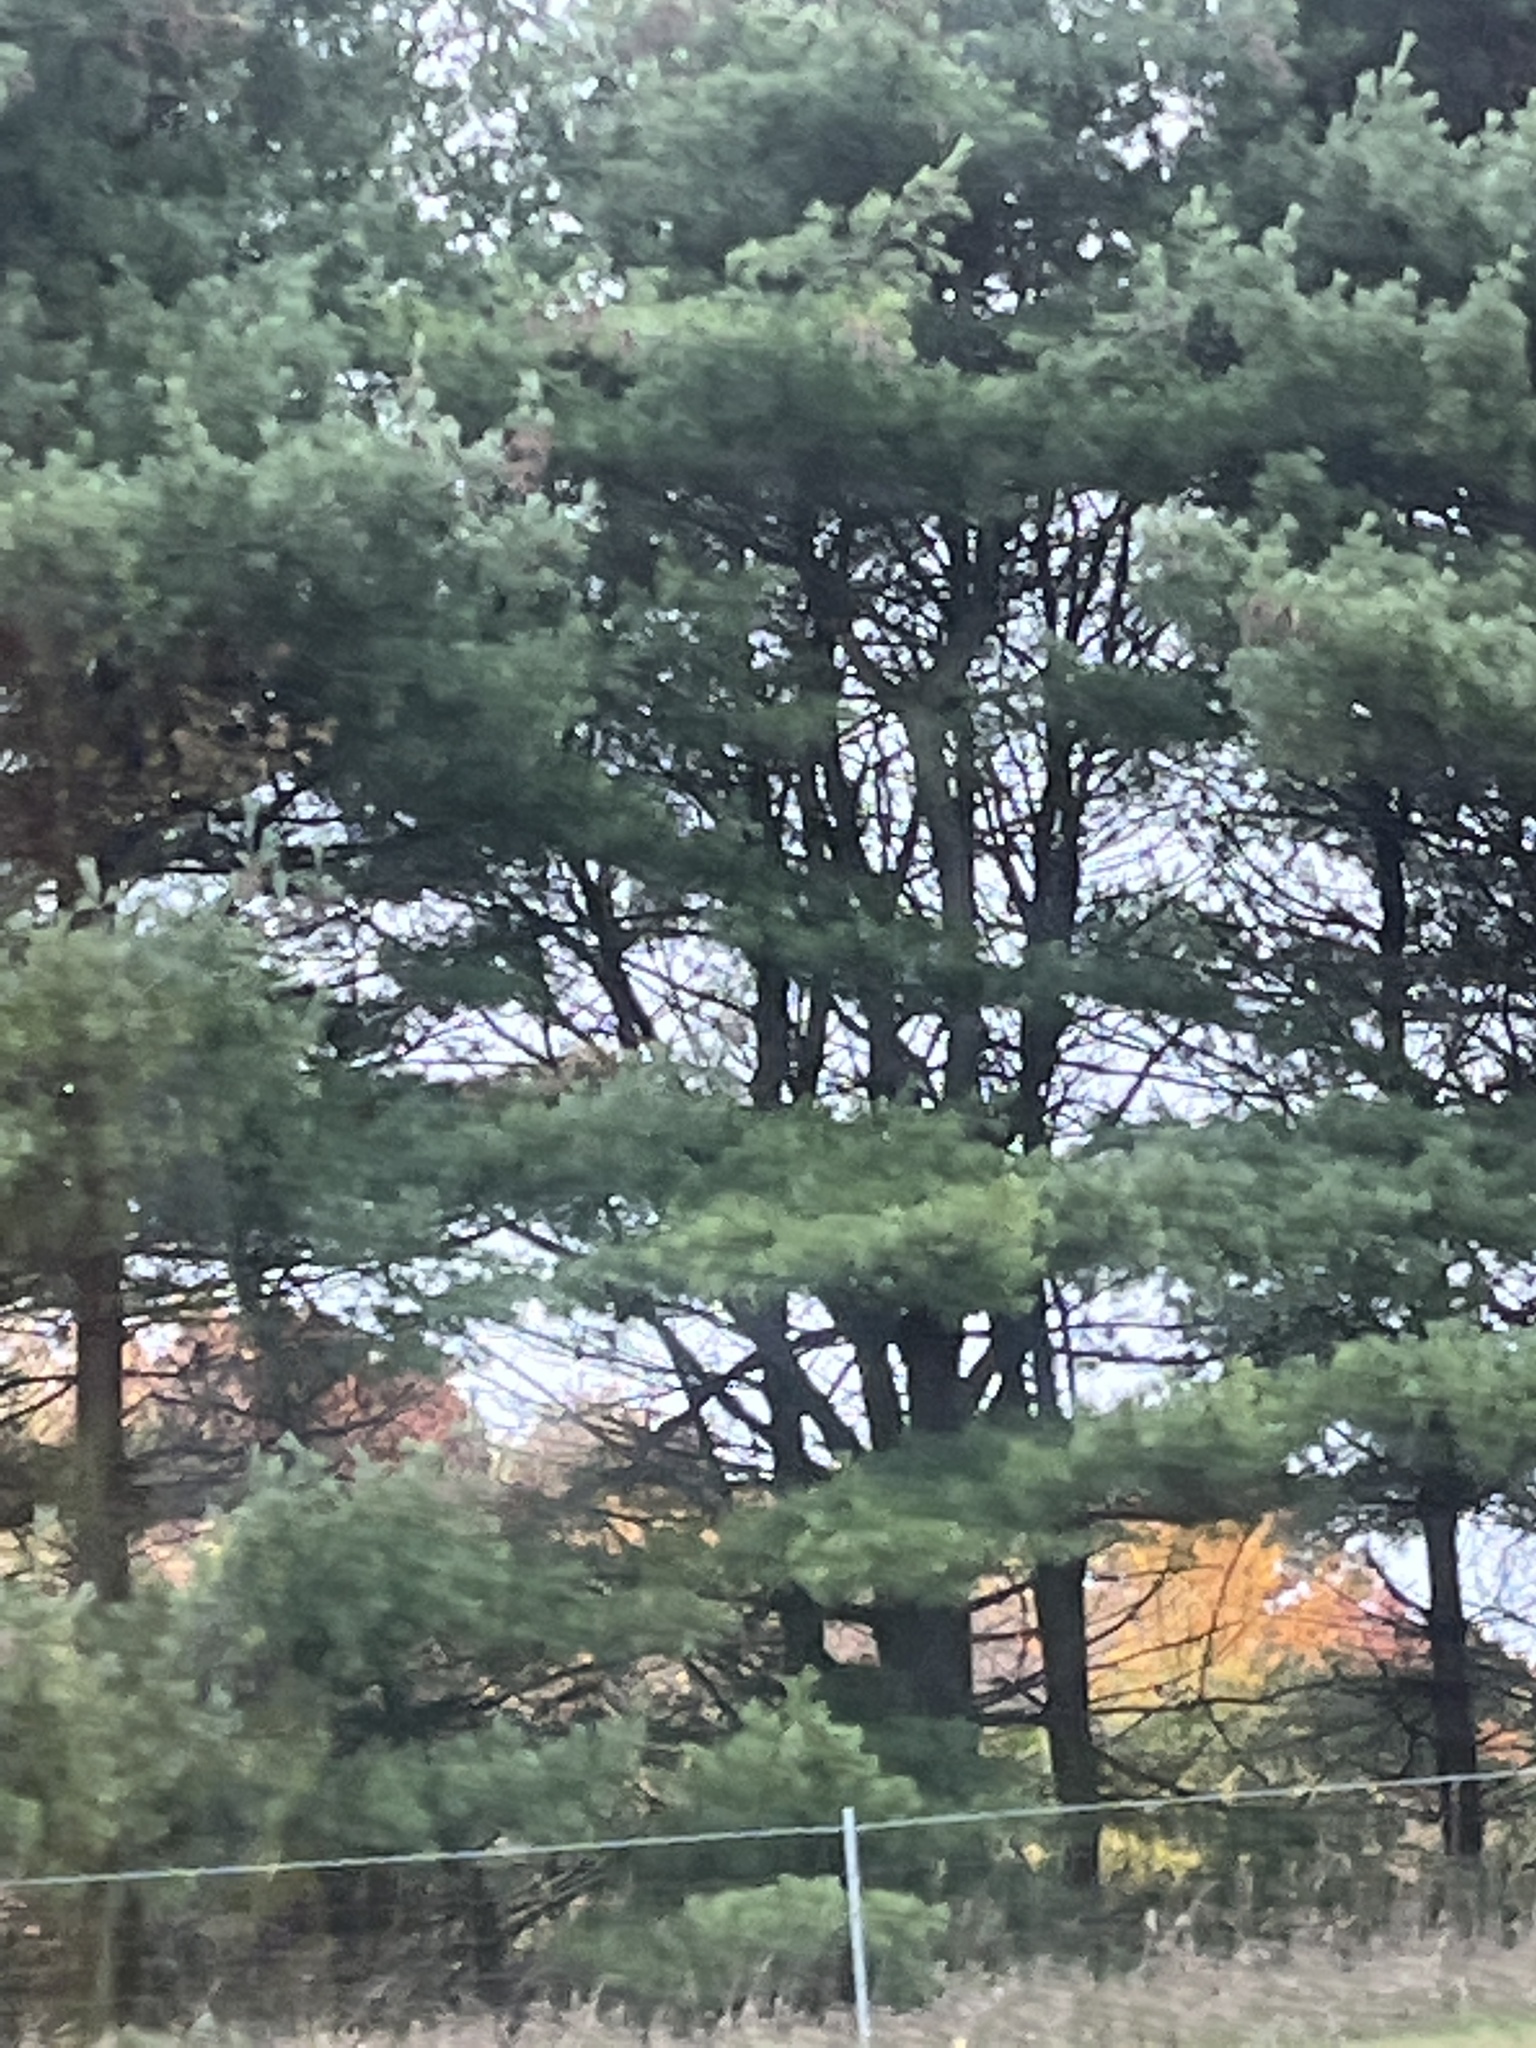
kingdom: Plantae
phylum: Tracheophyta
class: Pinopsida
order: Pinales
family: Pinaceae
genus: Pinus
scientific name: Pinus strobus
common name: Weymouth pine
